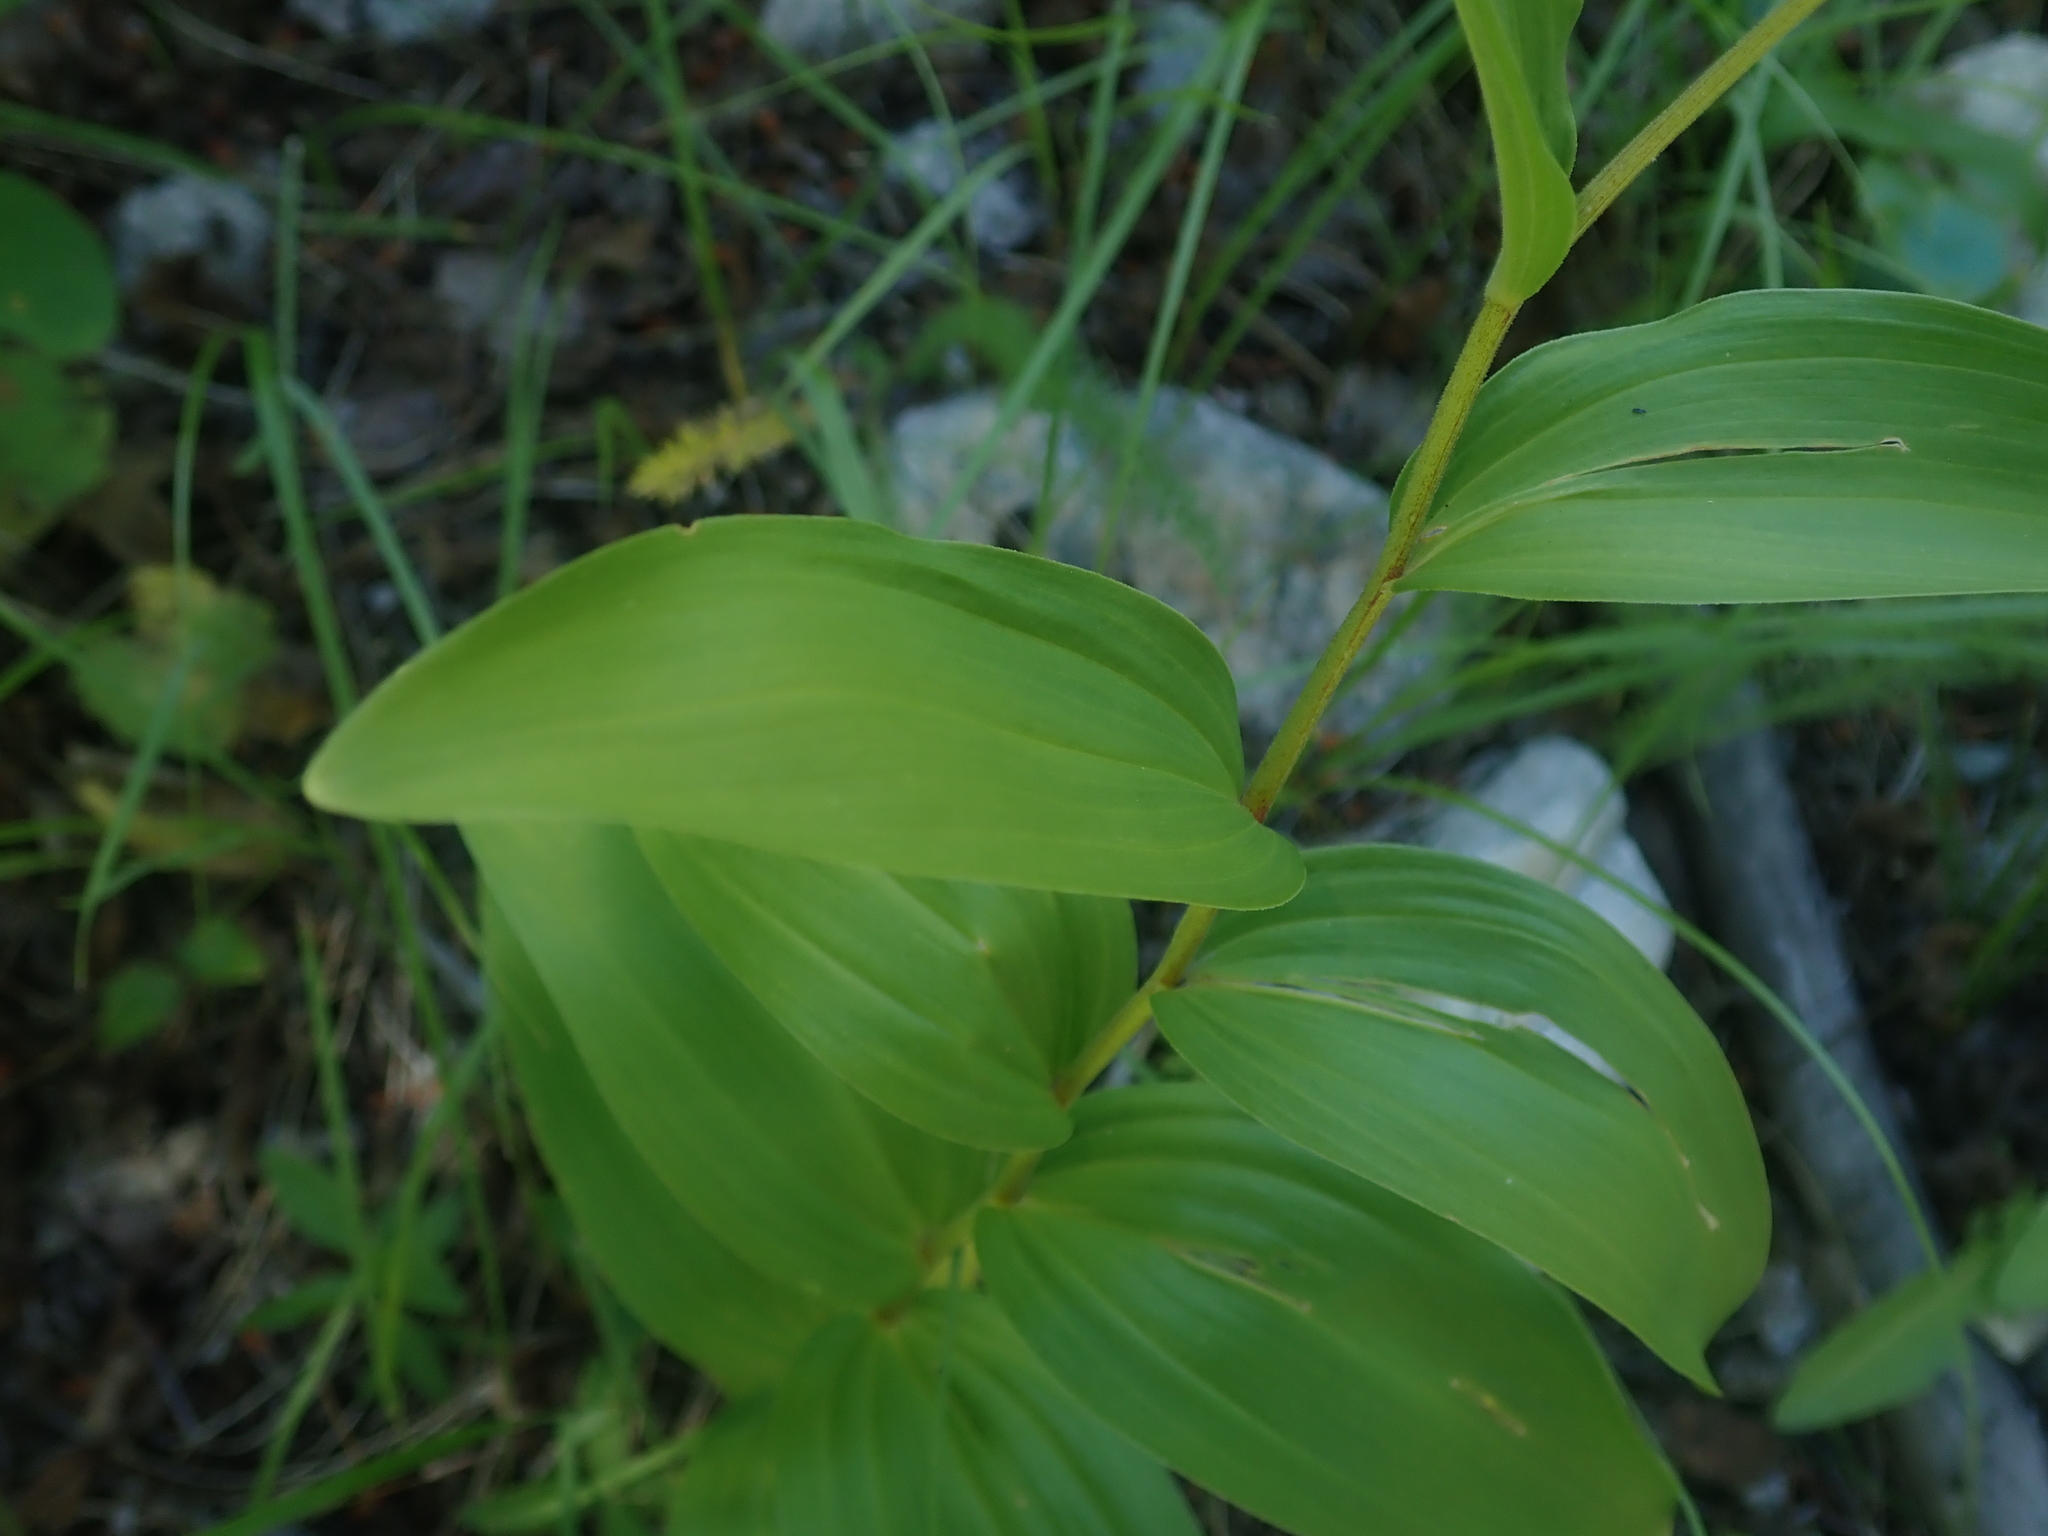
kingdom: Plantae
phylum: Tracheophyta
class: Liliopsida
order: Asparagales
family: Asparagaceae
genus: Maianthemum
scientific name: Maianthemum racemosum
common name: False spikenard
